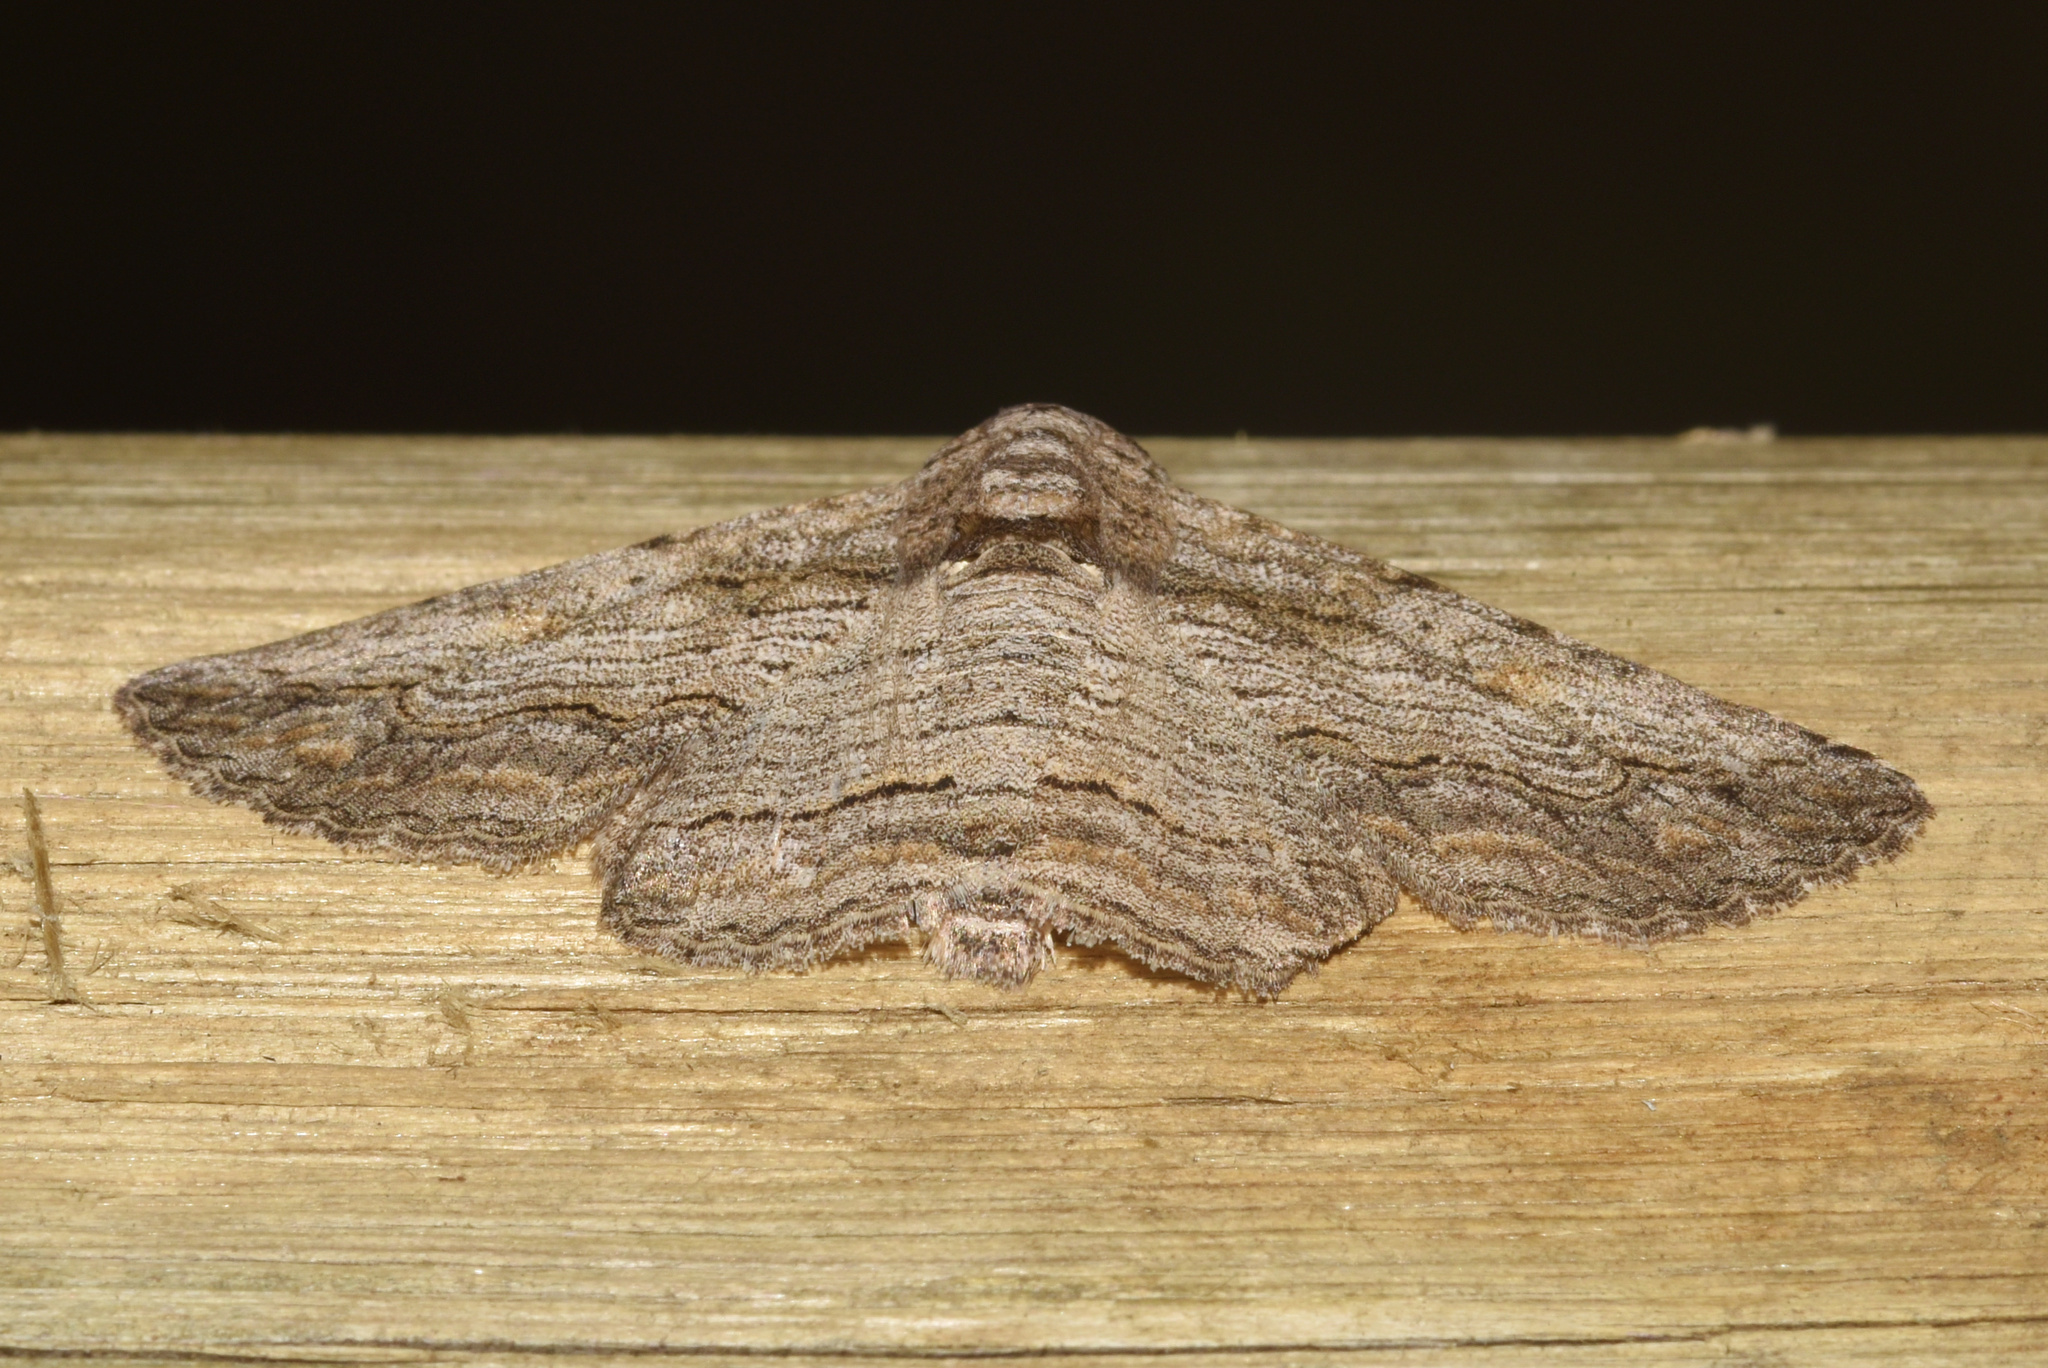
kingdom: Animalia
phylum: Arthropoda
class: Insecta
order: Lepidoptera
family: Erebidae
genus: Cortyta
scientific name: Cortyta canescens
